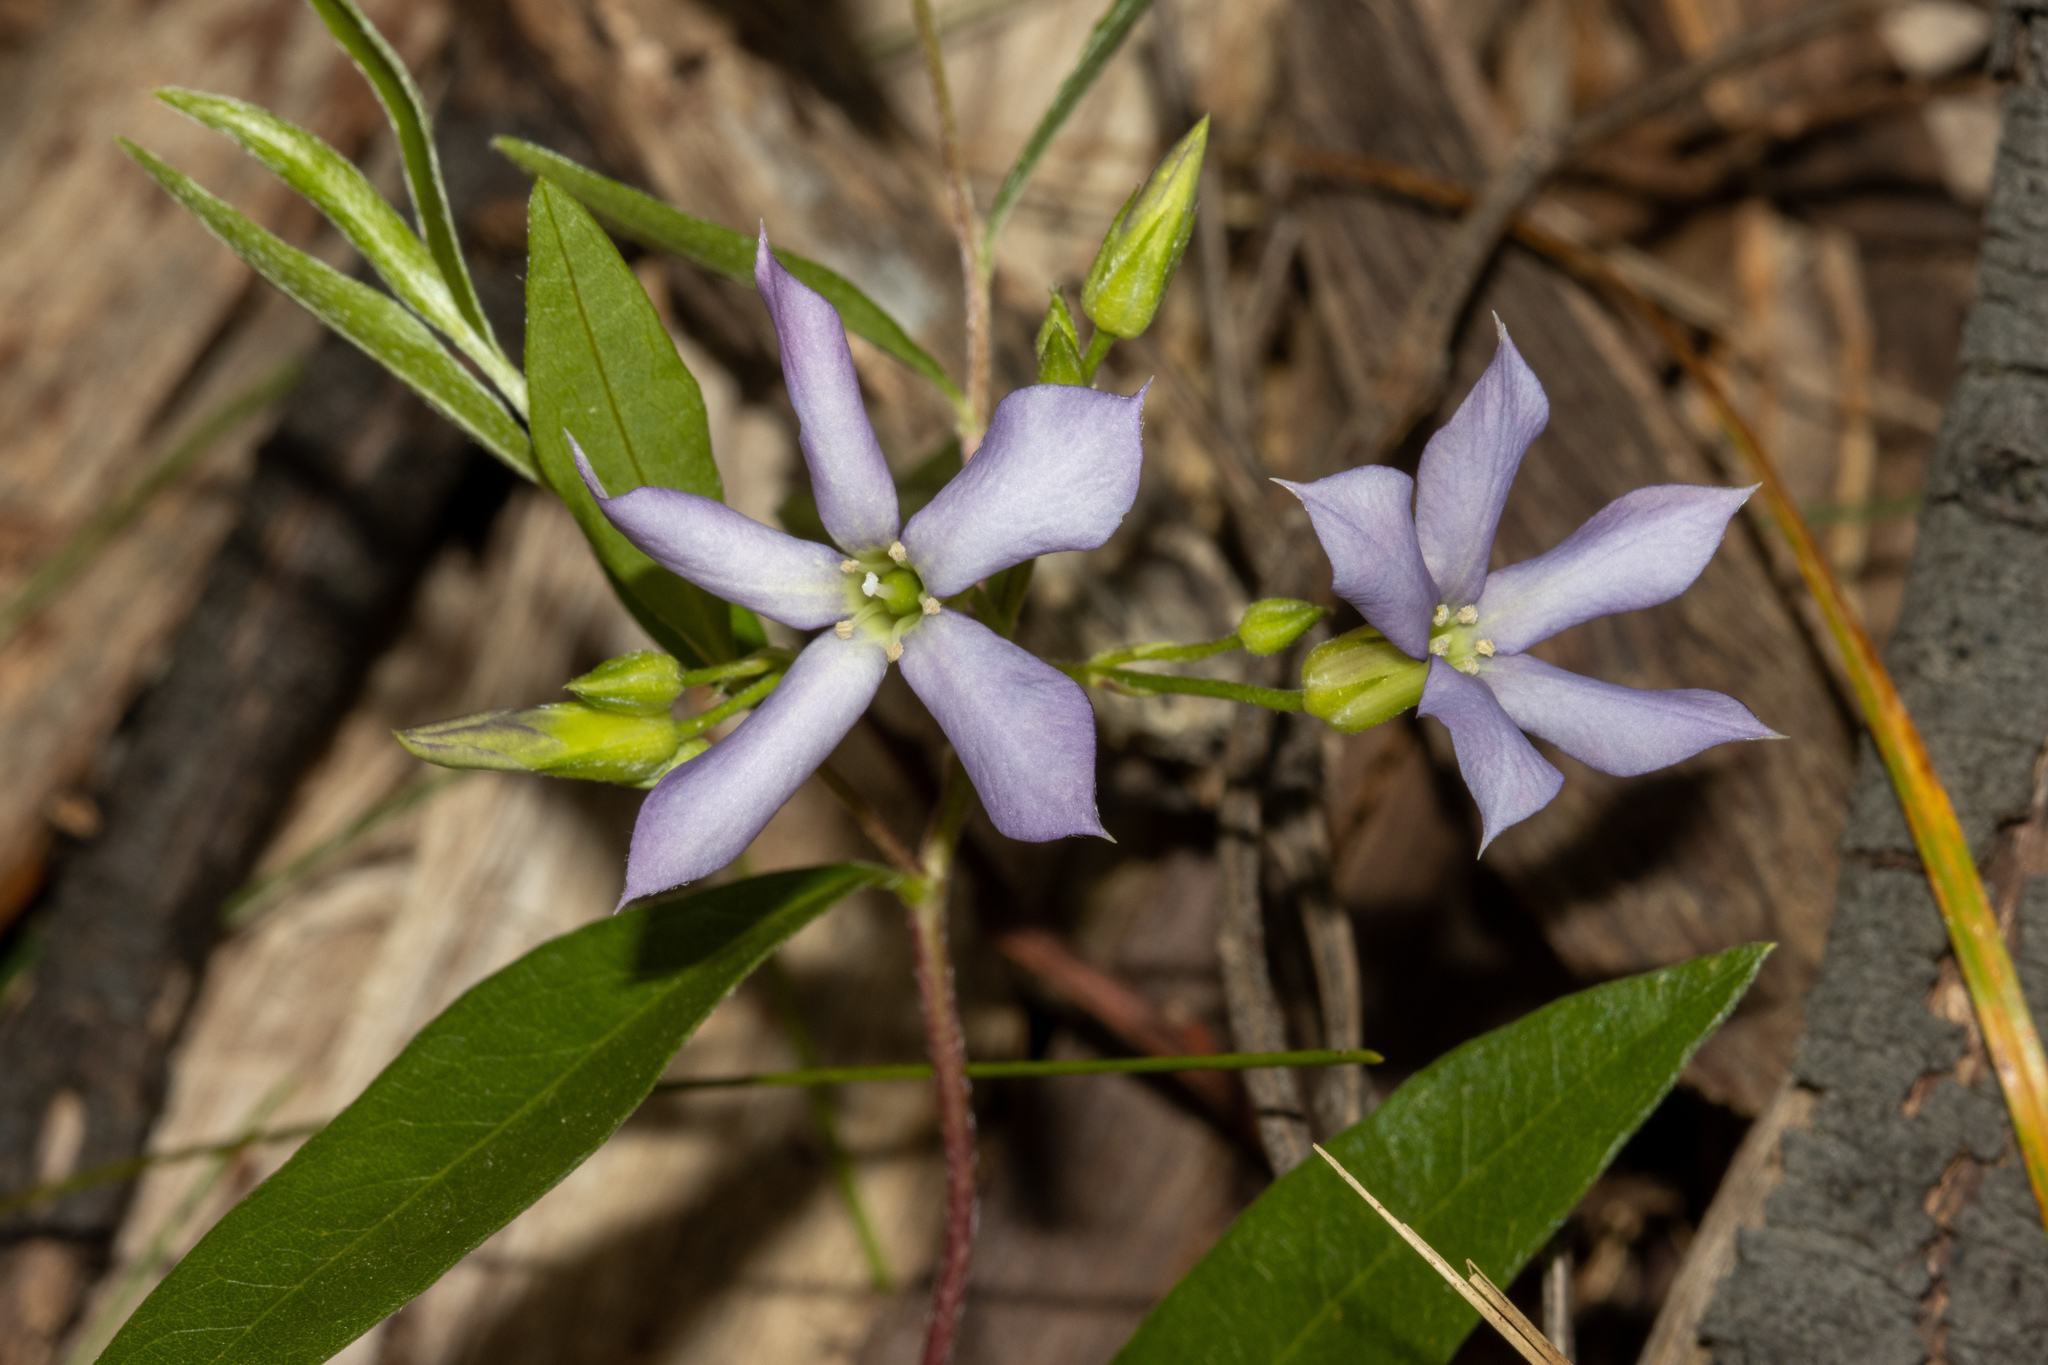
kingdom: Plantae
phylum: Tracheophyta
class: Magnoliopsida
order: Apiales
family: Pittosporaceae
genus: Billardiera
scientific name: Billardiera cymosa
